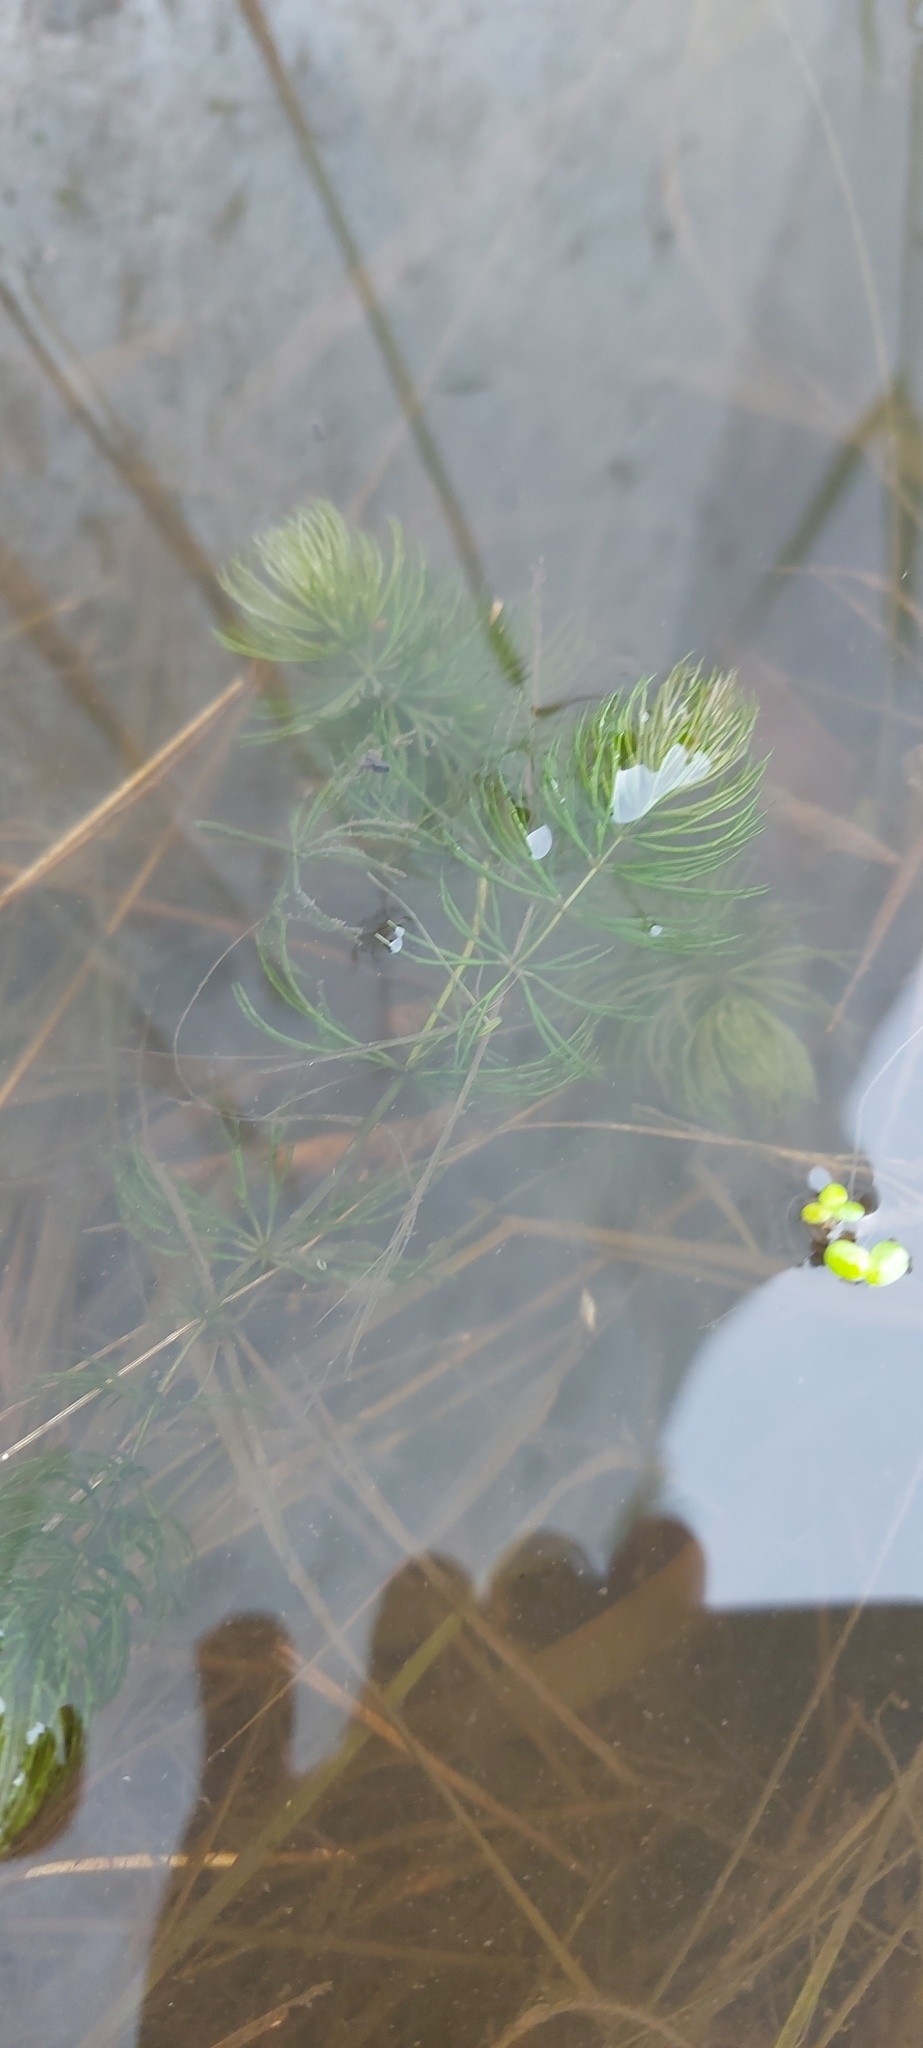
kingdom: Plantae
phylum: Tracheophyta
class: Magnoliopsida
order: Ceratophyllales
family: Ceratophyllaceae
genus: Ceratophyllum
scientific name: Ceratophyllum demersum
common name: Rigid hornwort
